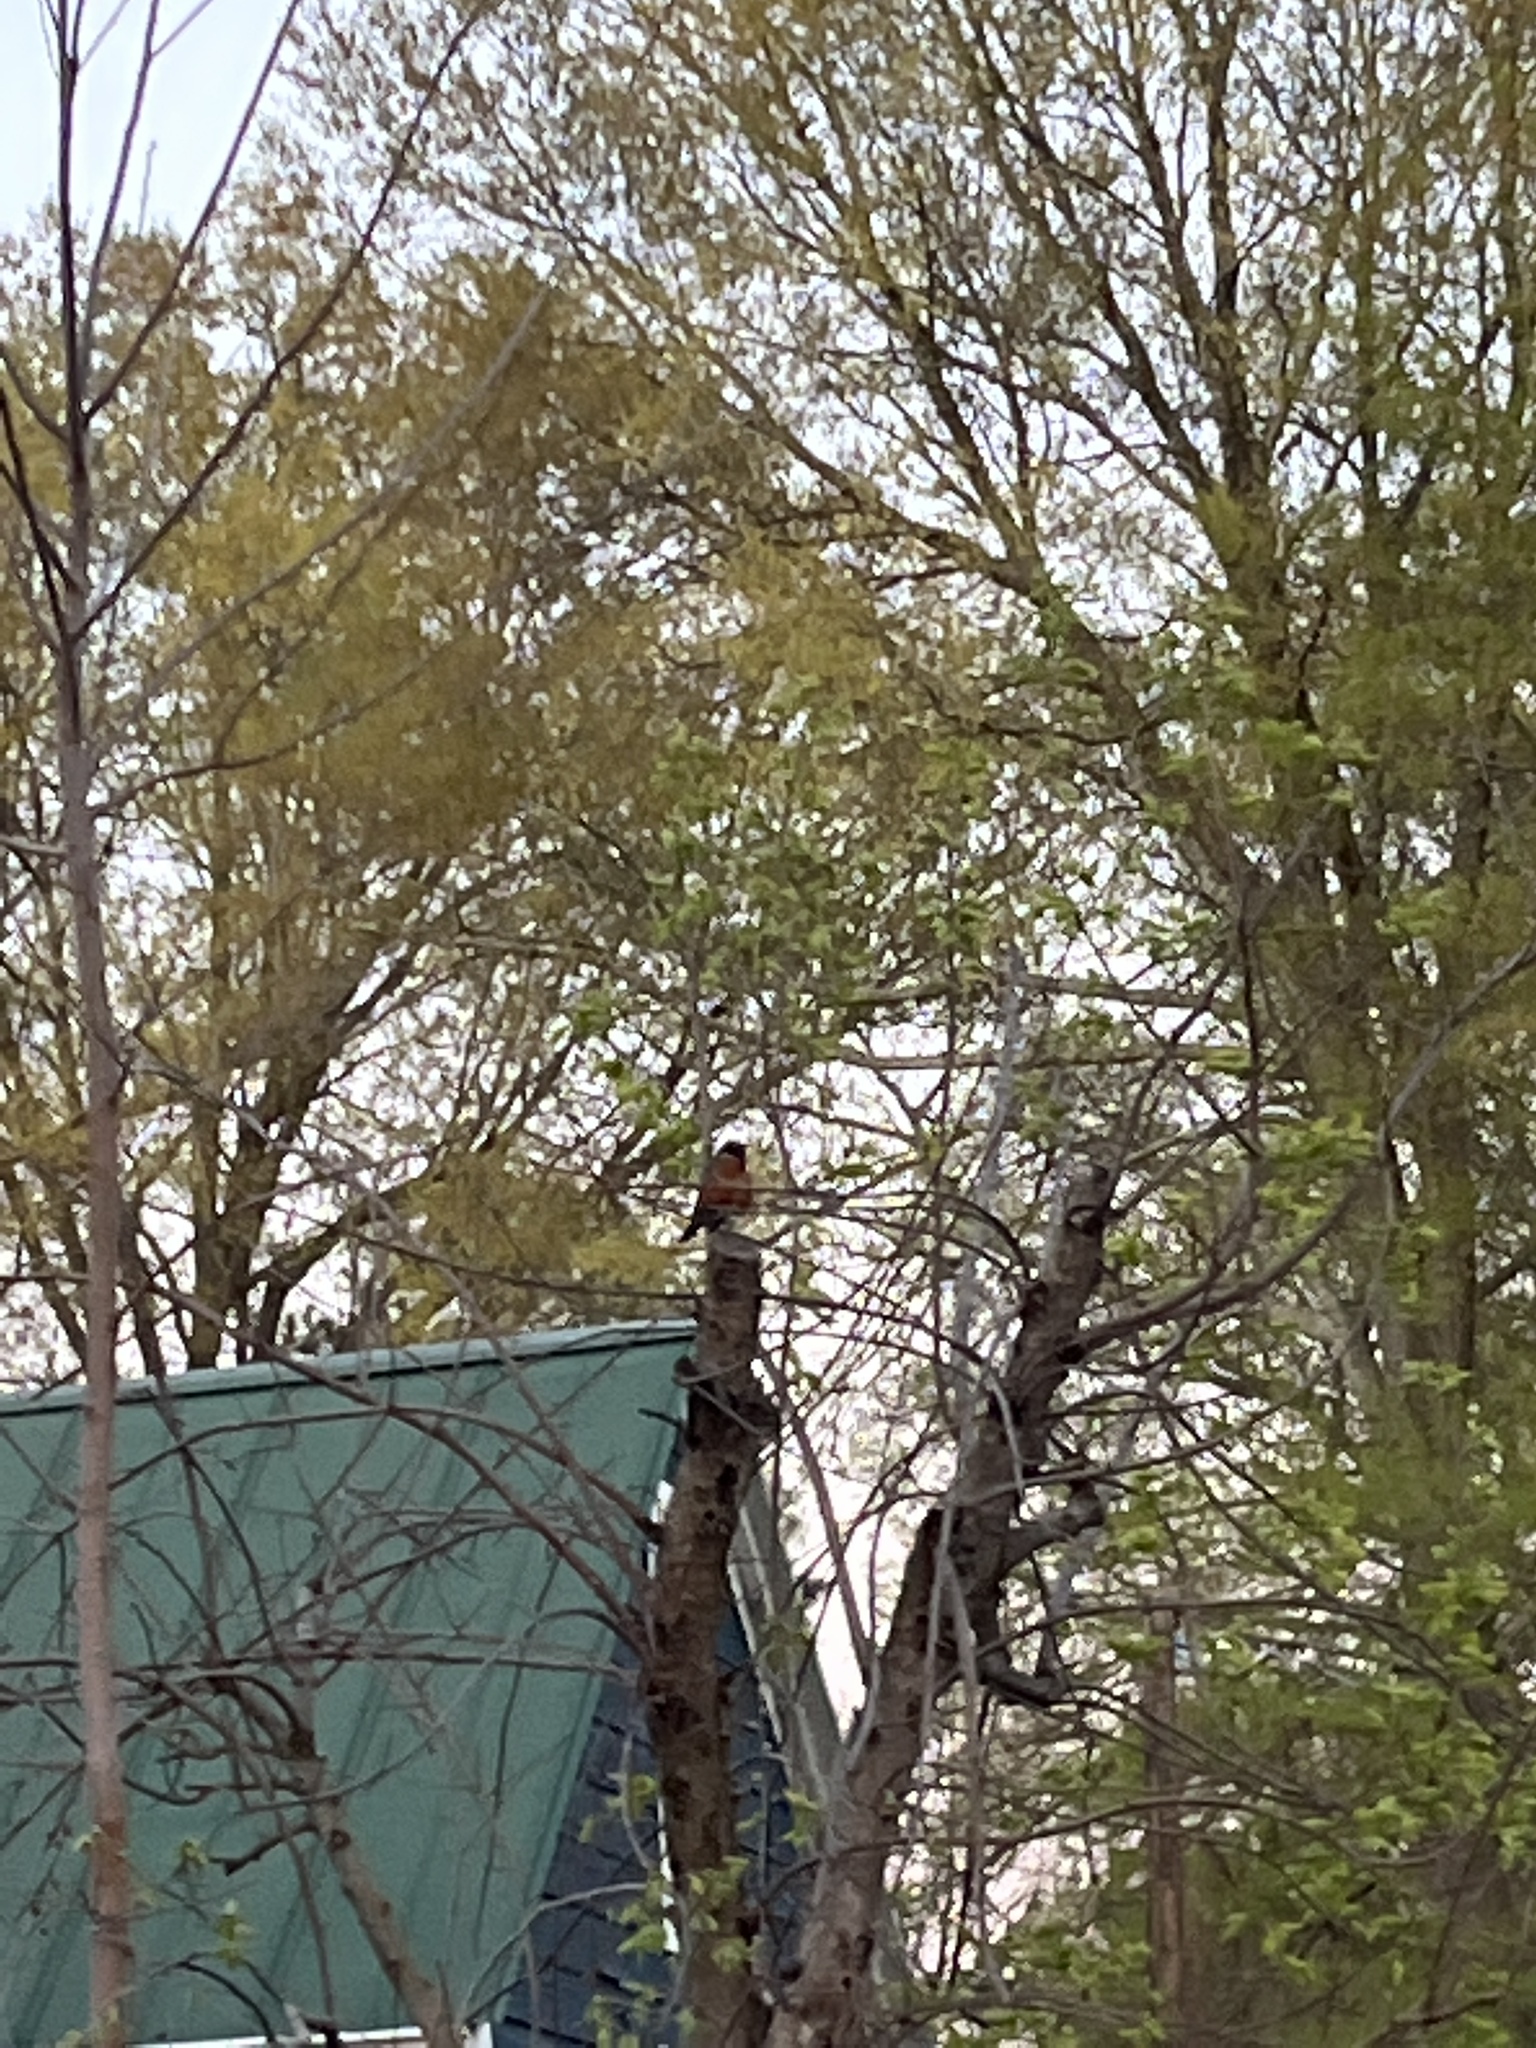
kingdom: Animalia
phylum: Chordata
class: Aves
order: Passeriformes
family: Turdidae
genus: Turdus
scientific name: Turdus migratorius
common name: American robin
